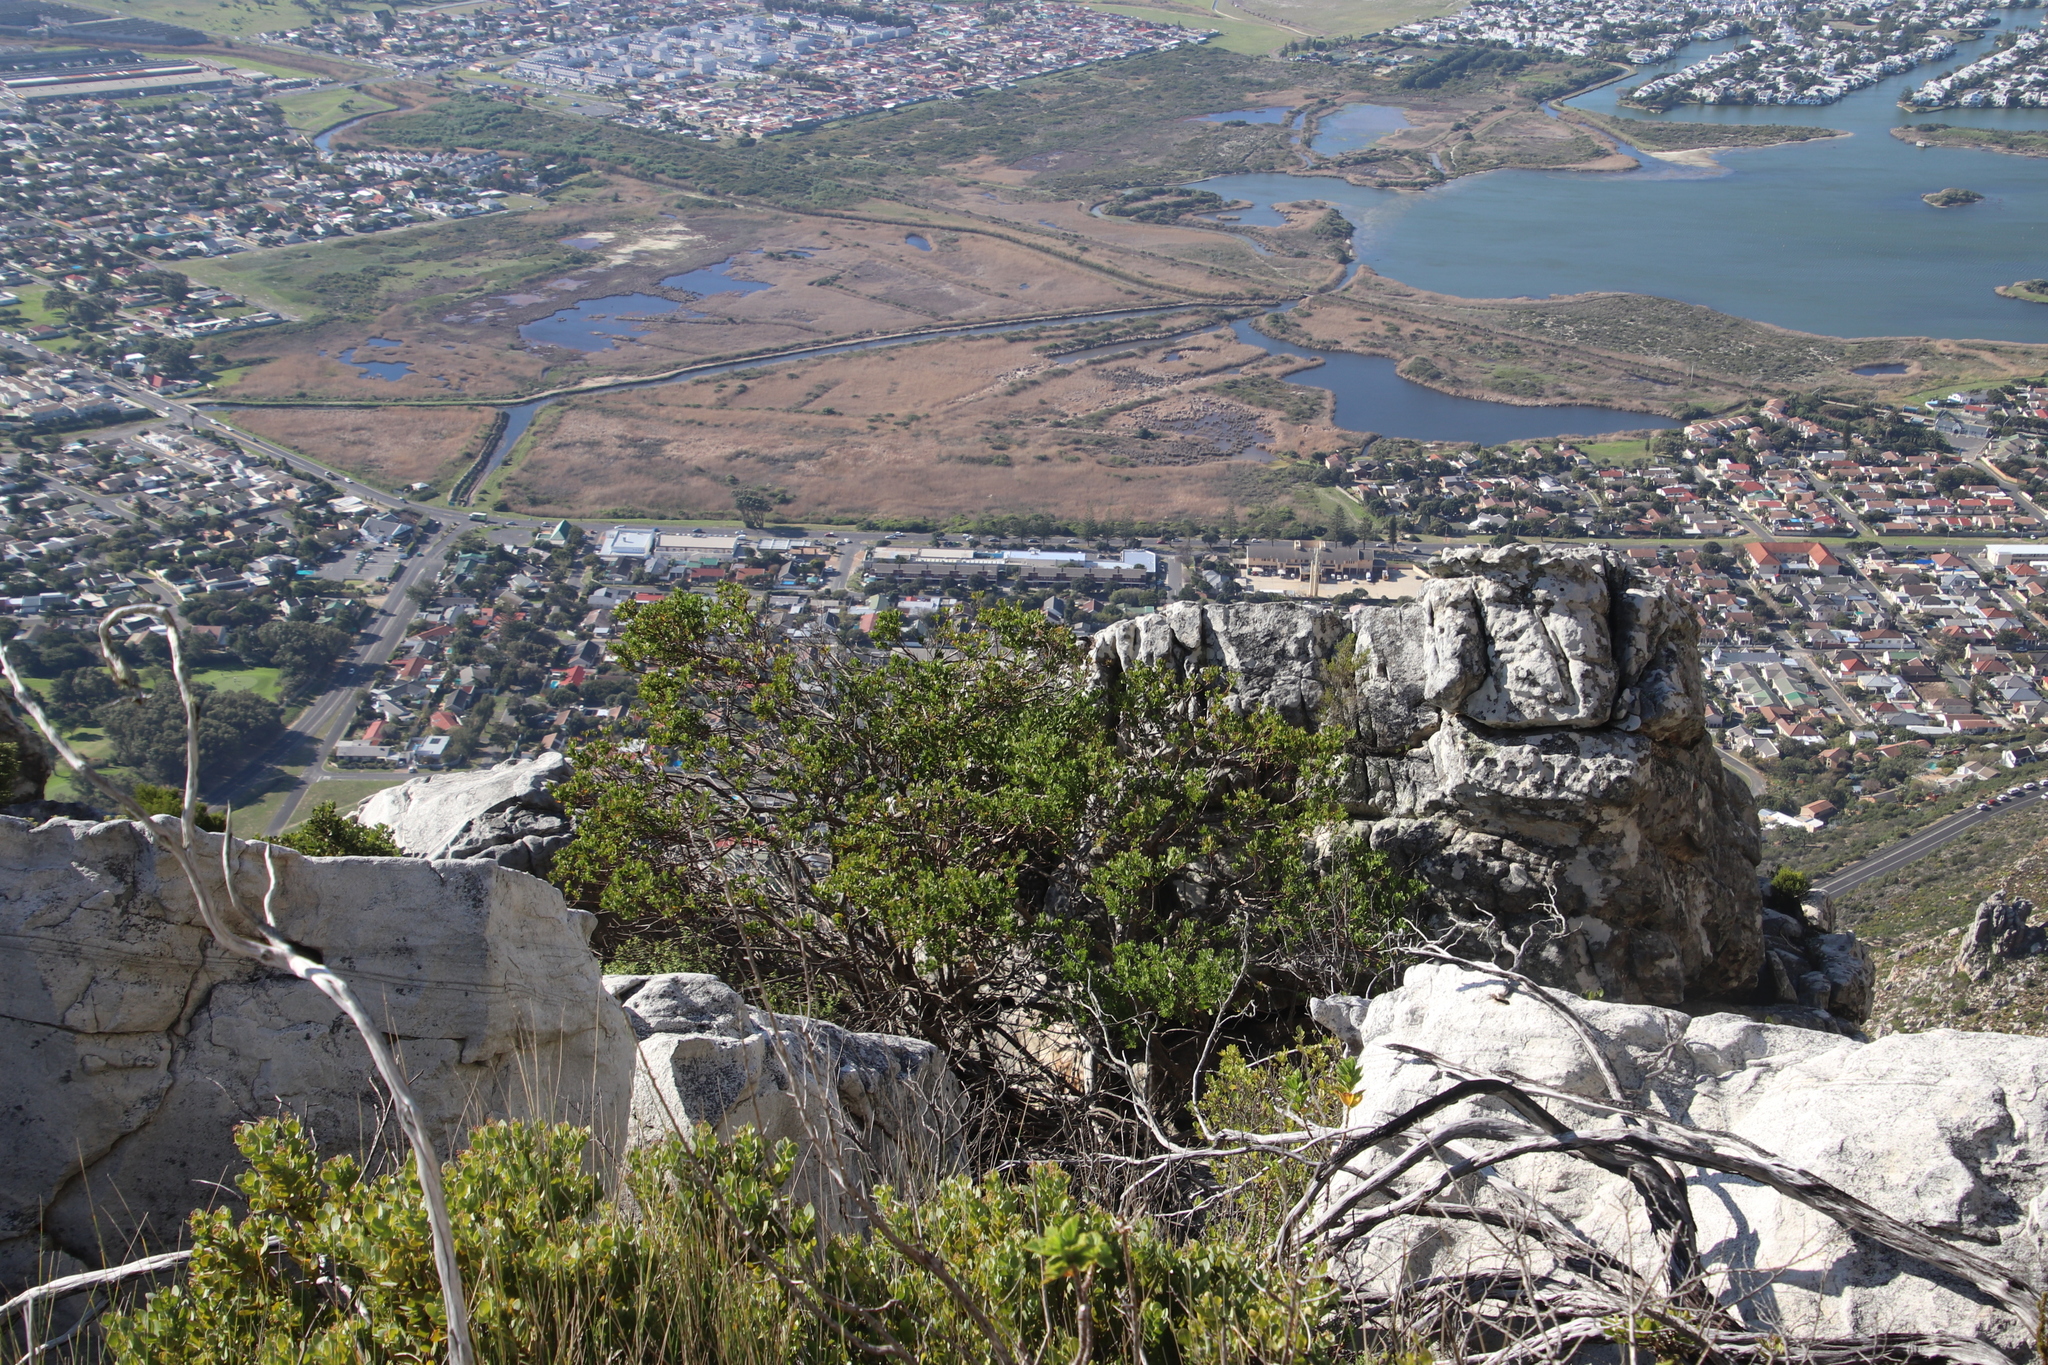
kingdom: Plantae
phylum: Tracheophyta
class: Magnoliopsida
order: Asterales
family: Asteraceae
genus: Osteospermum
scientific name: Osteospermum moniliferum
